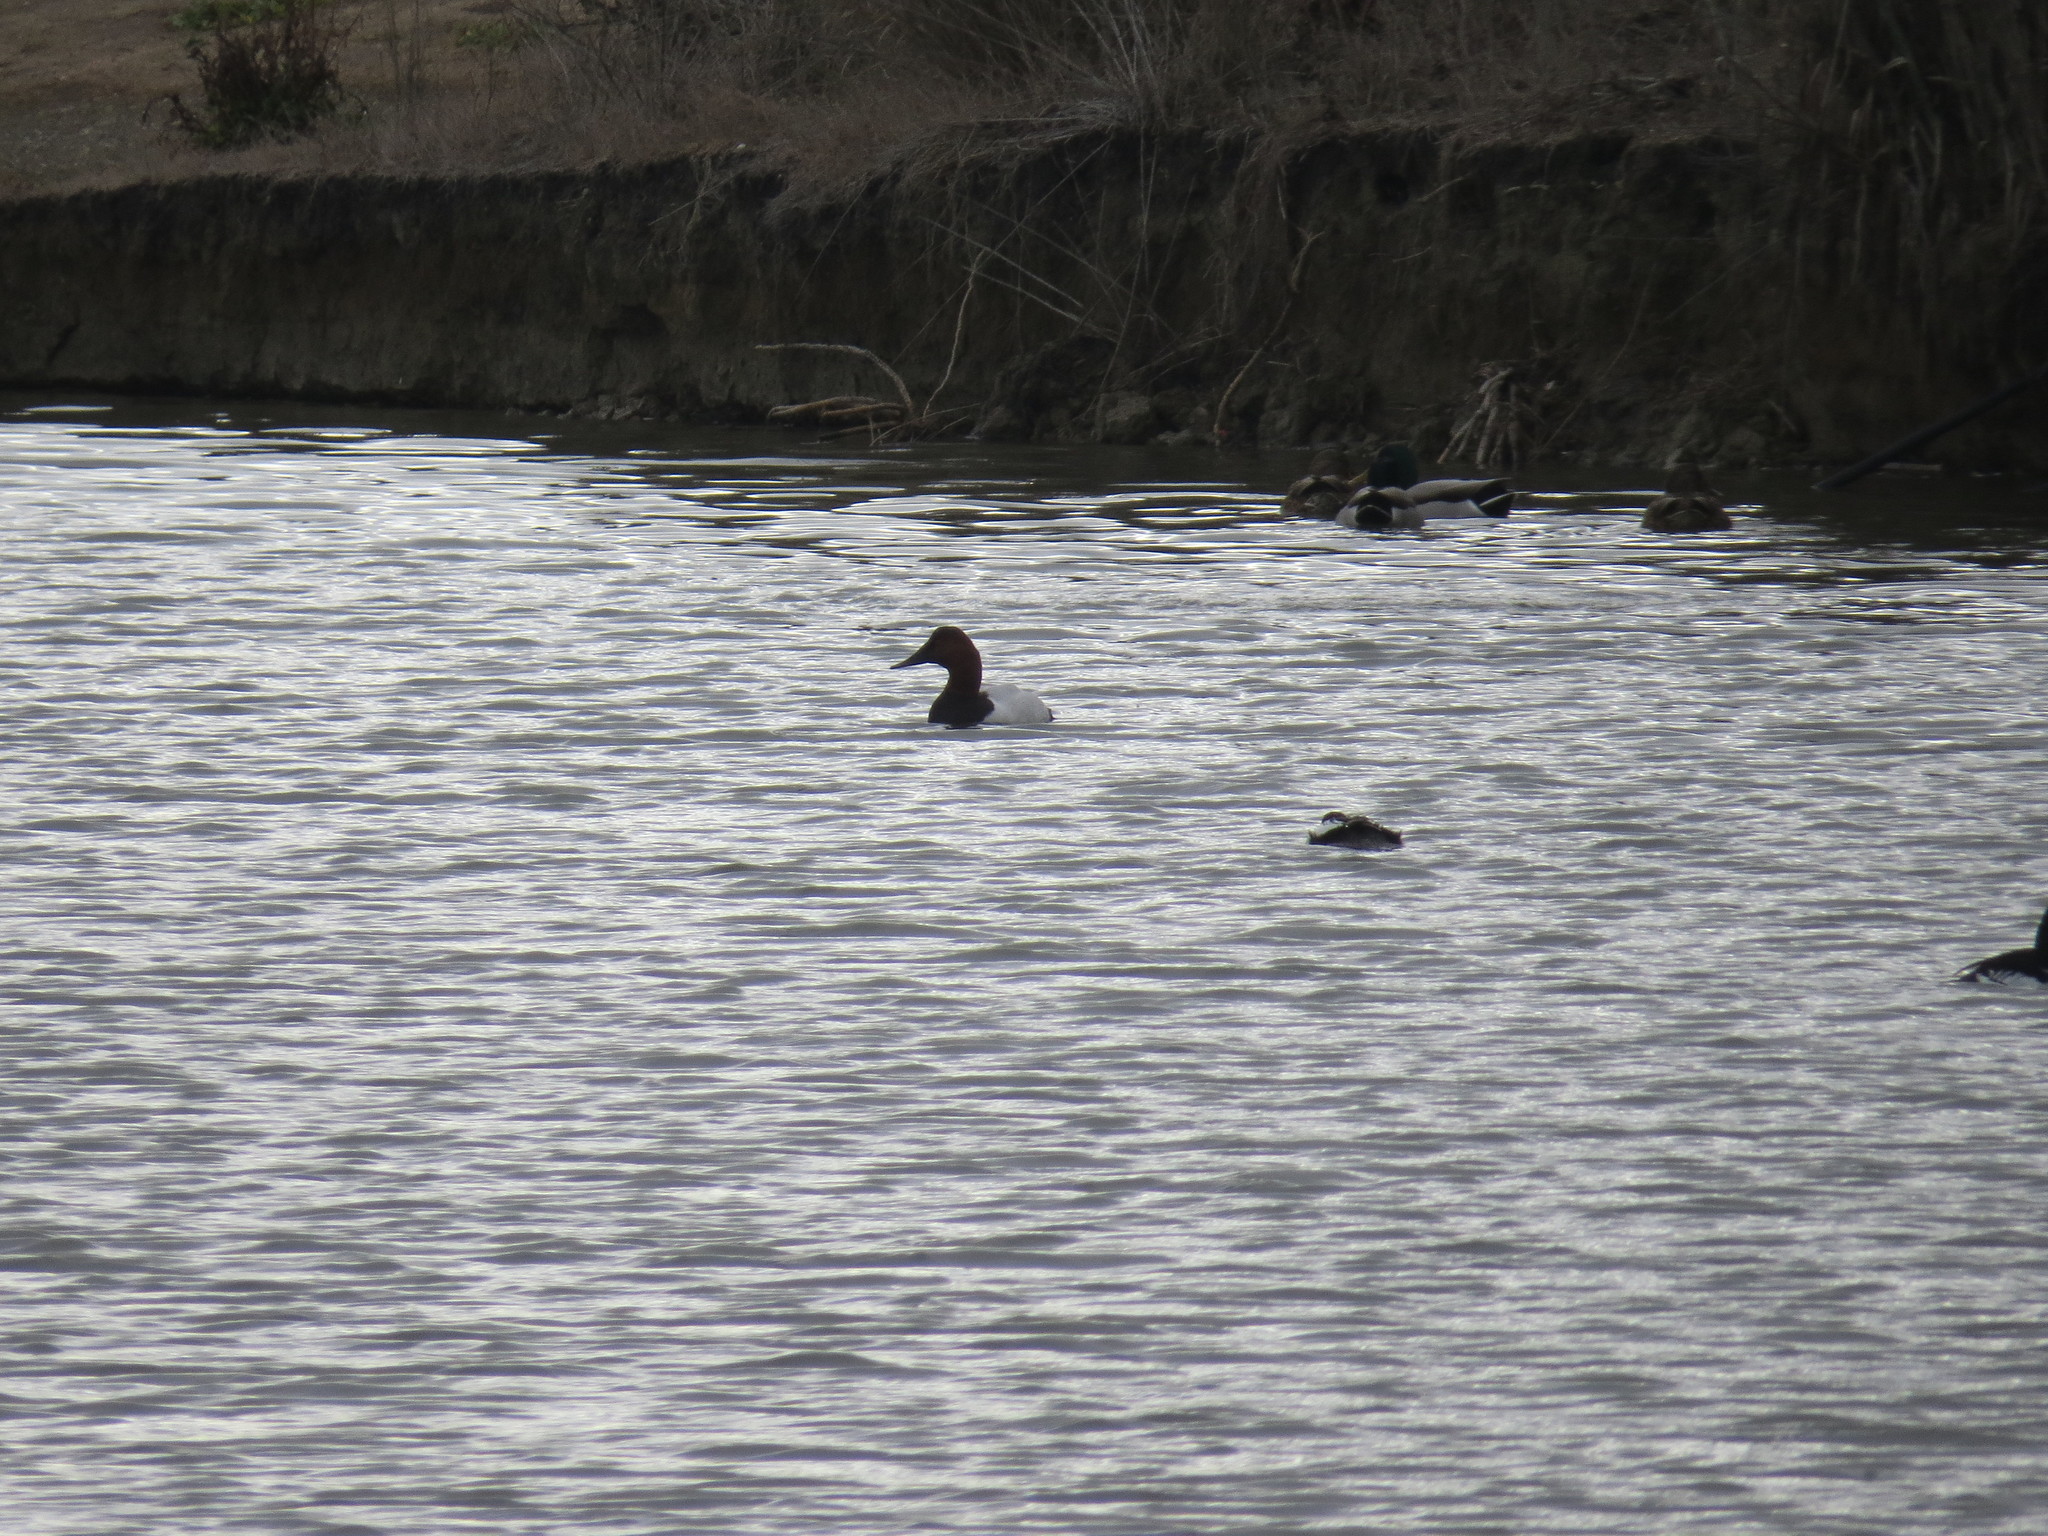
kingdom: Animalia
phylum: Chordata
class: Aves
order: Anseriformes
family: Anatidae
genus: Aythya
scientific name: Aythya valisineria
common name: Canvasback
